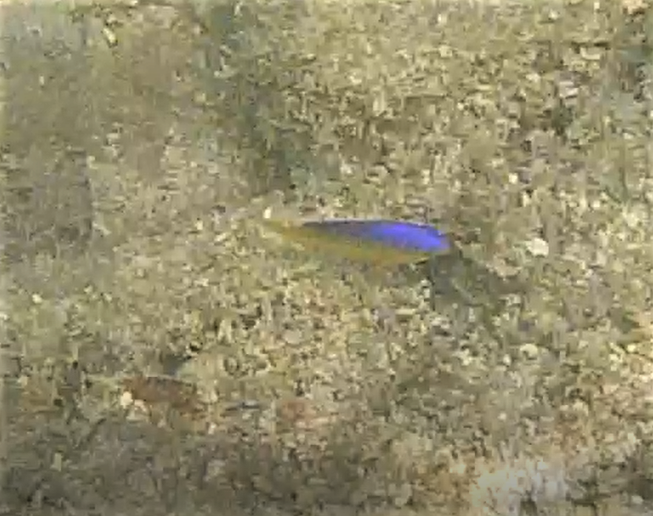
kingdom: Animalia
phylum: Chordata
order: Perciformes
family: Pomacentridae
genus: Stegastes
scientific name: Stegastes leucostictus
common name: Beaugregory
